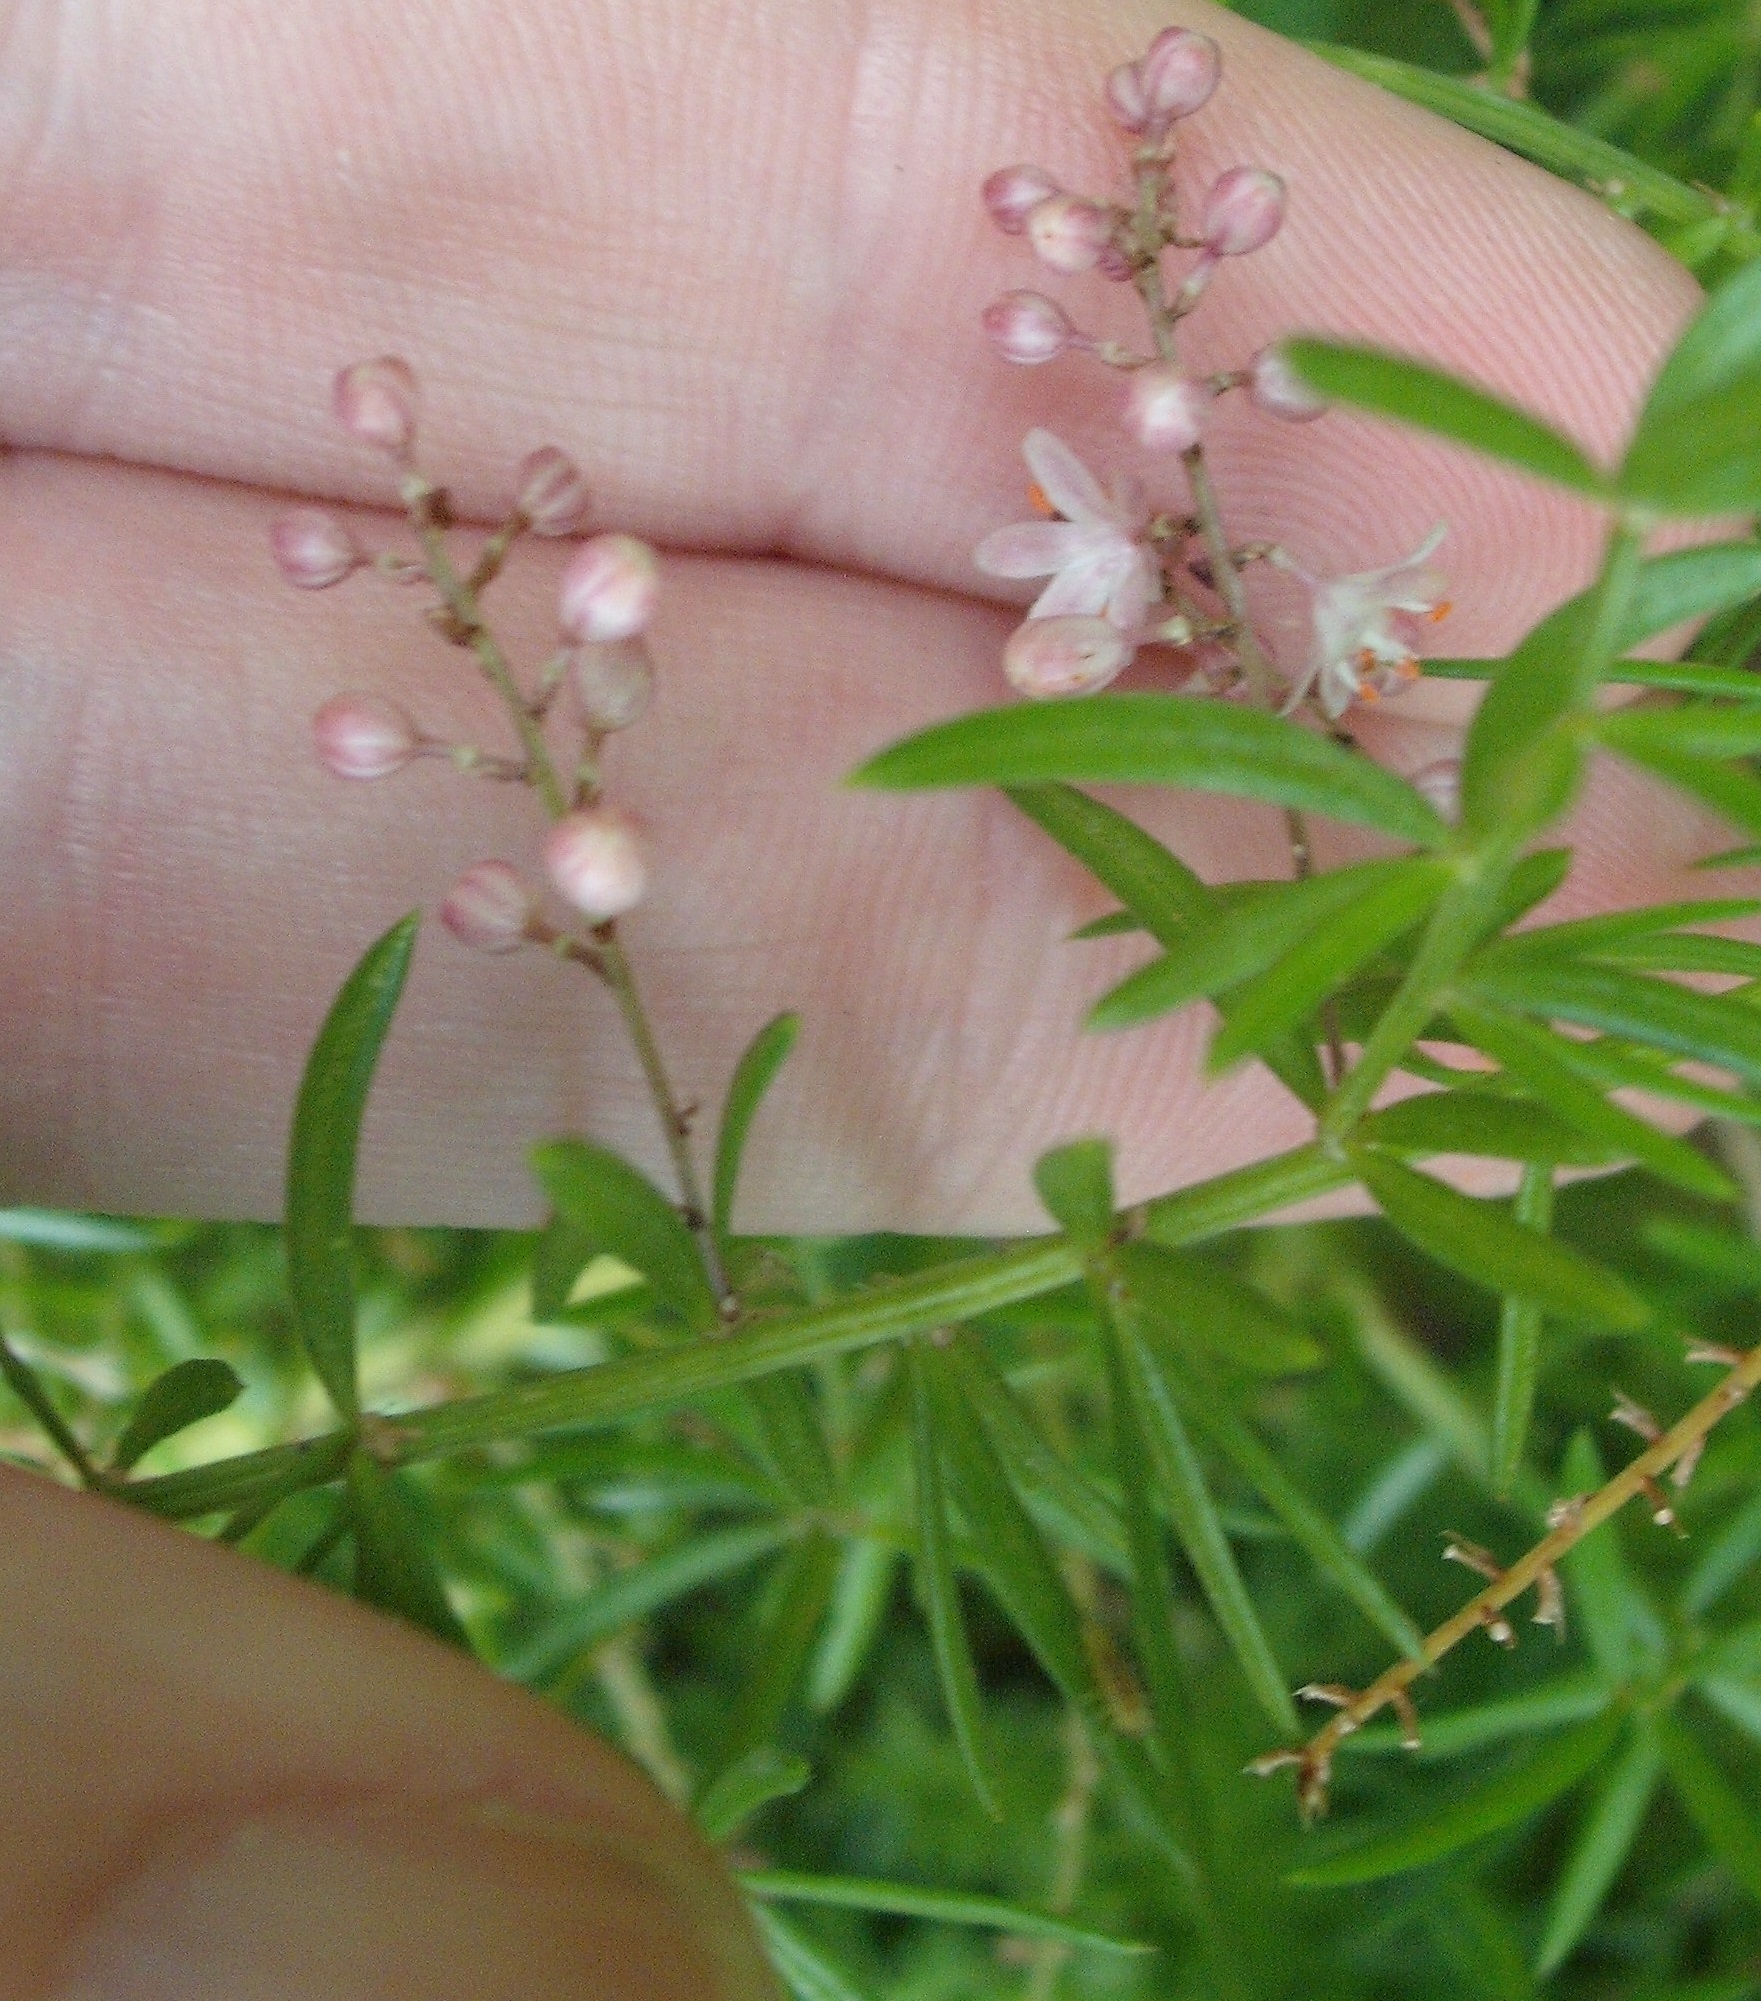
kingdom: Plantae
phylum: Tracheophyta
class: Liliopsida
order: Asparagales
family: Asparagaceae
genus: Asparagus
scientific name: Asparagus aethiopicus
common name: Sprenger's asparagus fern
